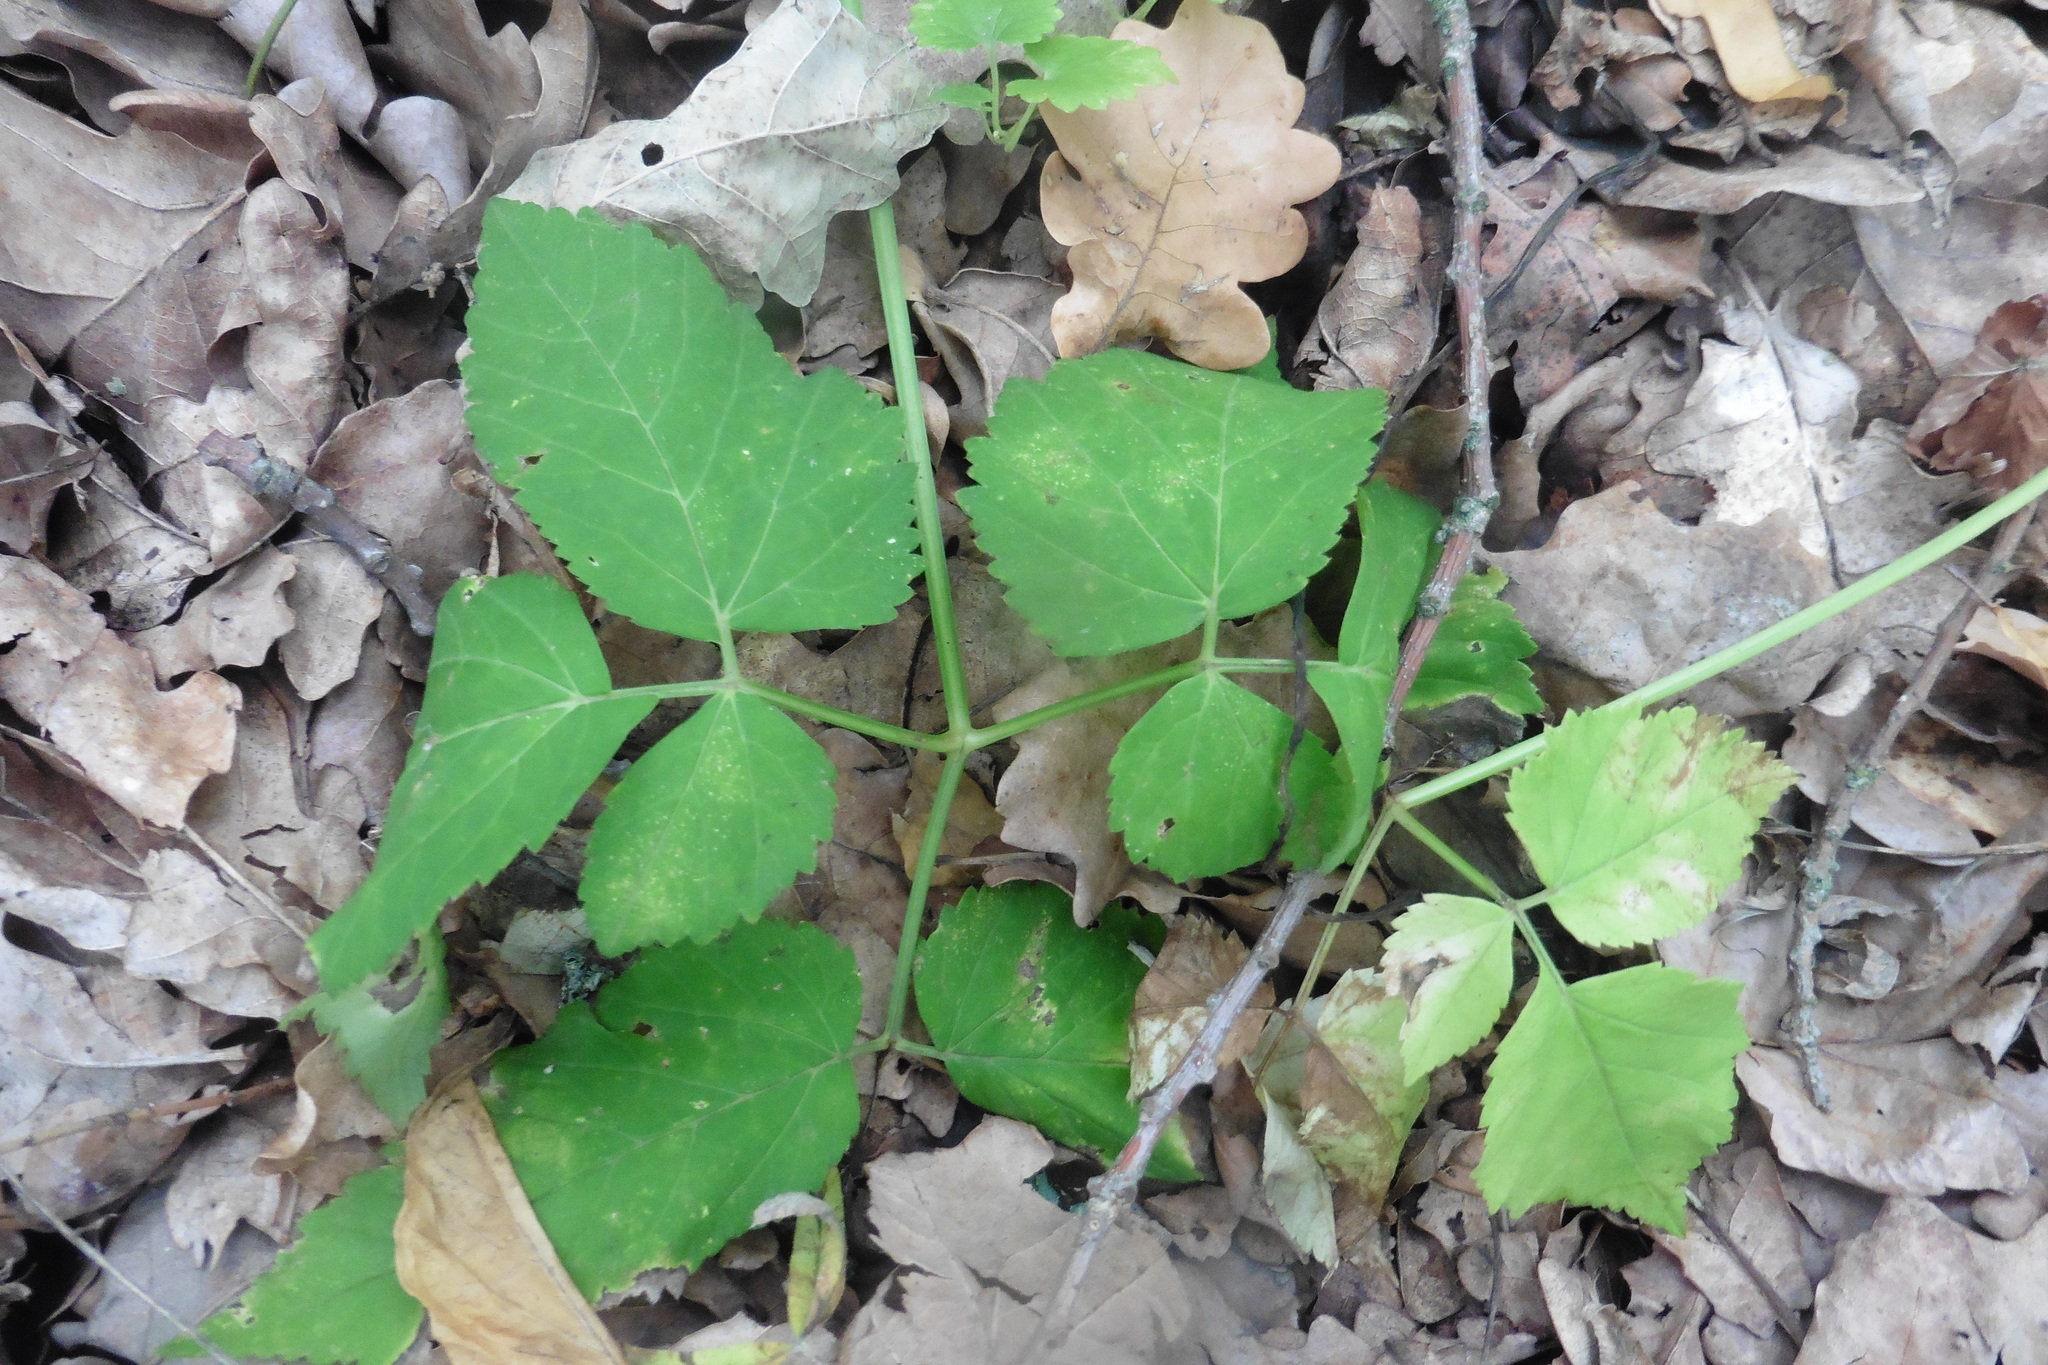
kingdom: Plantae
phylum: Tracheophyta
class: Magnoliopsida
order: Apiales
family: Apiaceae
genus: Aegopodium
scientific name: Aegopodium podagraria
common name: Ground-elder
